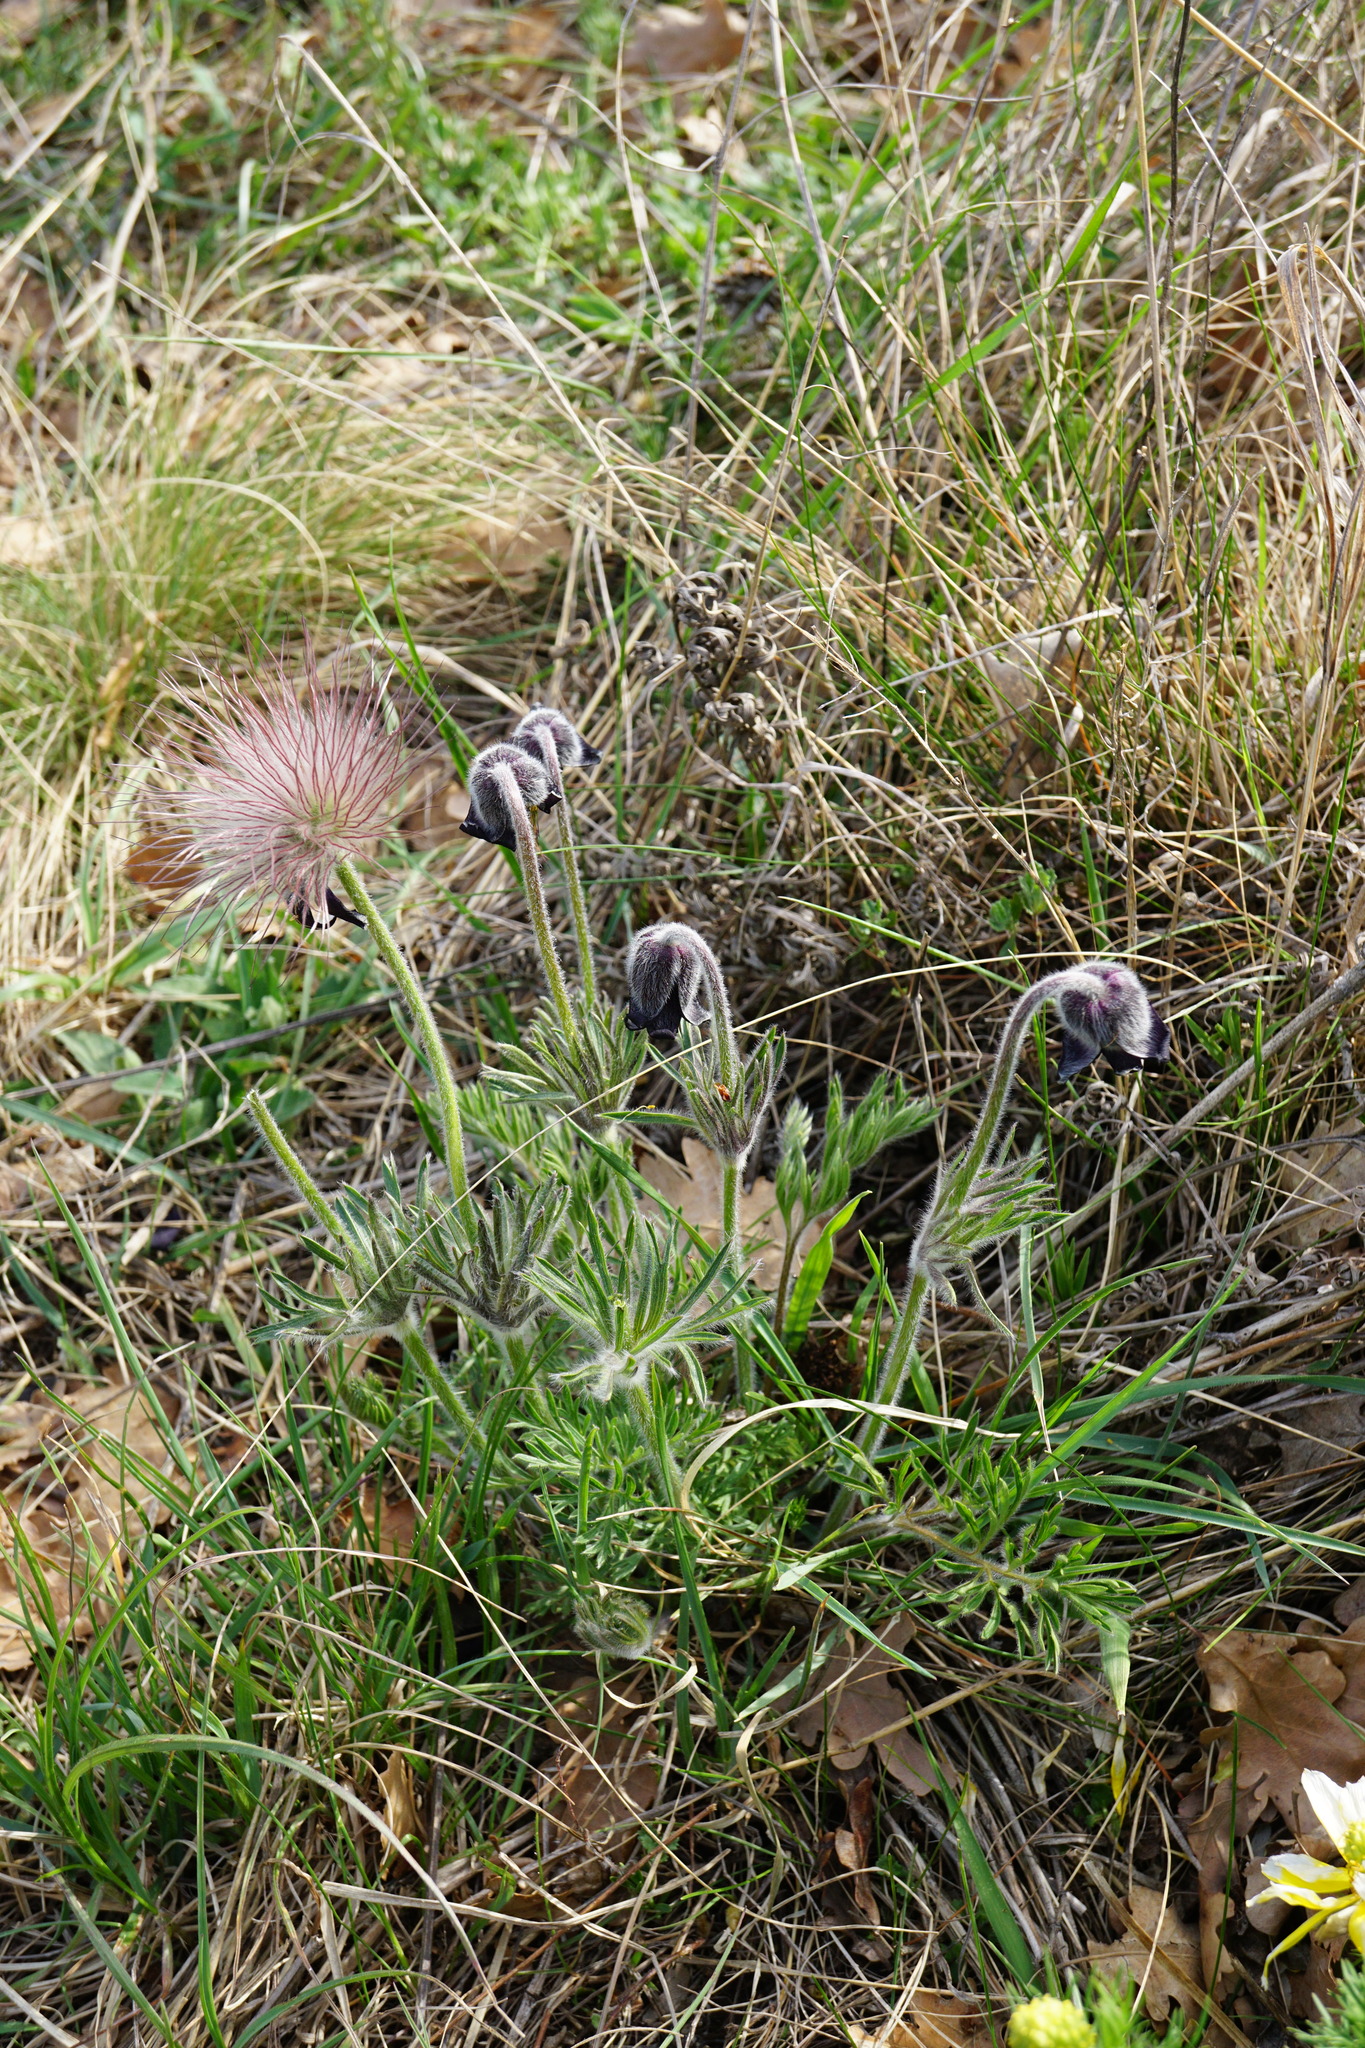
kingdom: Plantae
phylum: Tracheophyta
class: Magnoliopsida
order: Ranunculales
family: Ranunculaceae
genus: Pulsatilla
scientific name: Pulsatilla pratensis
